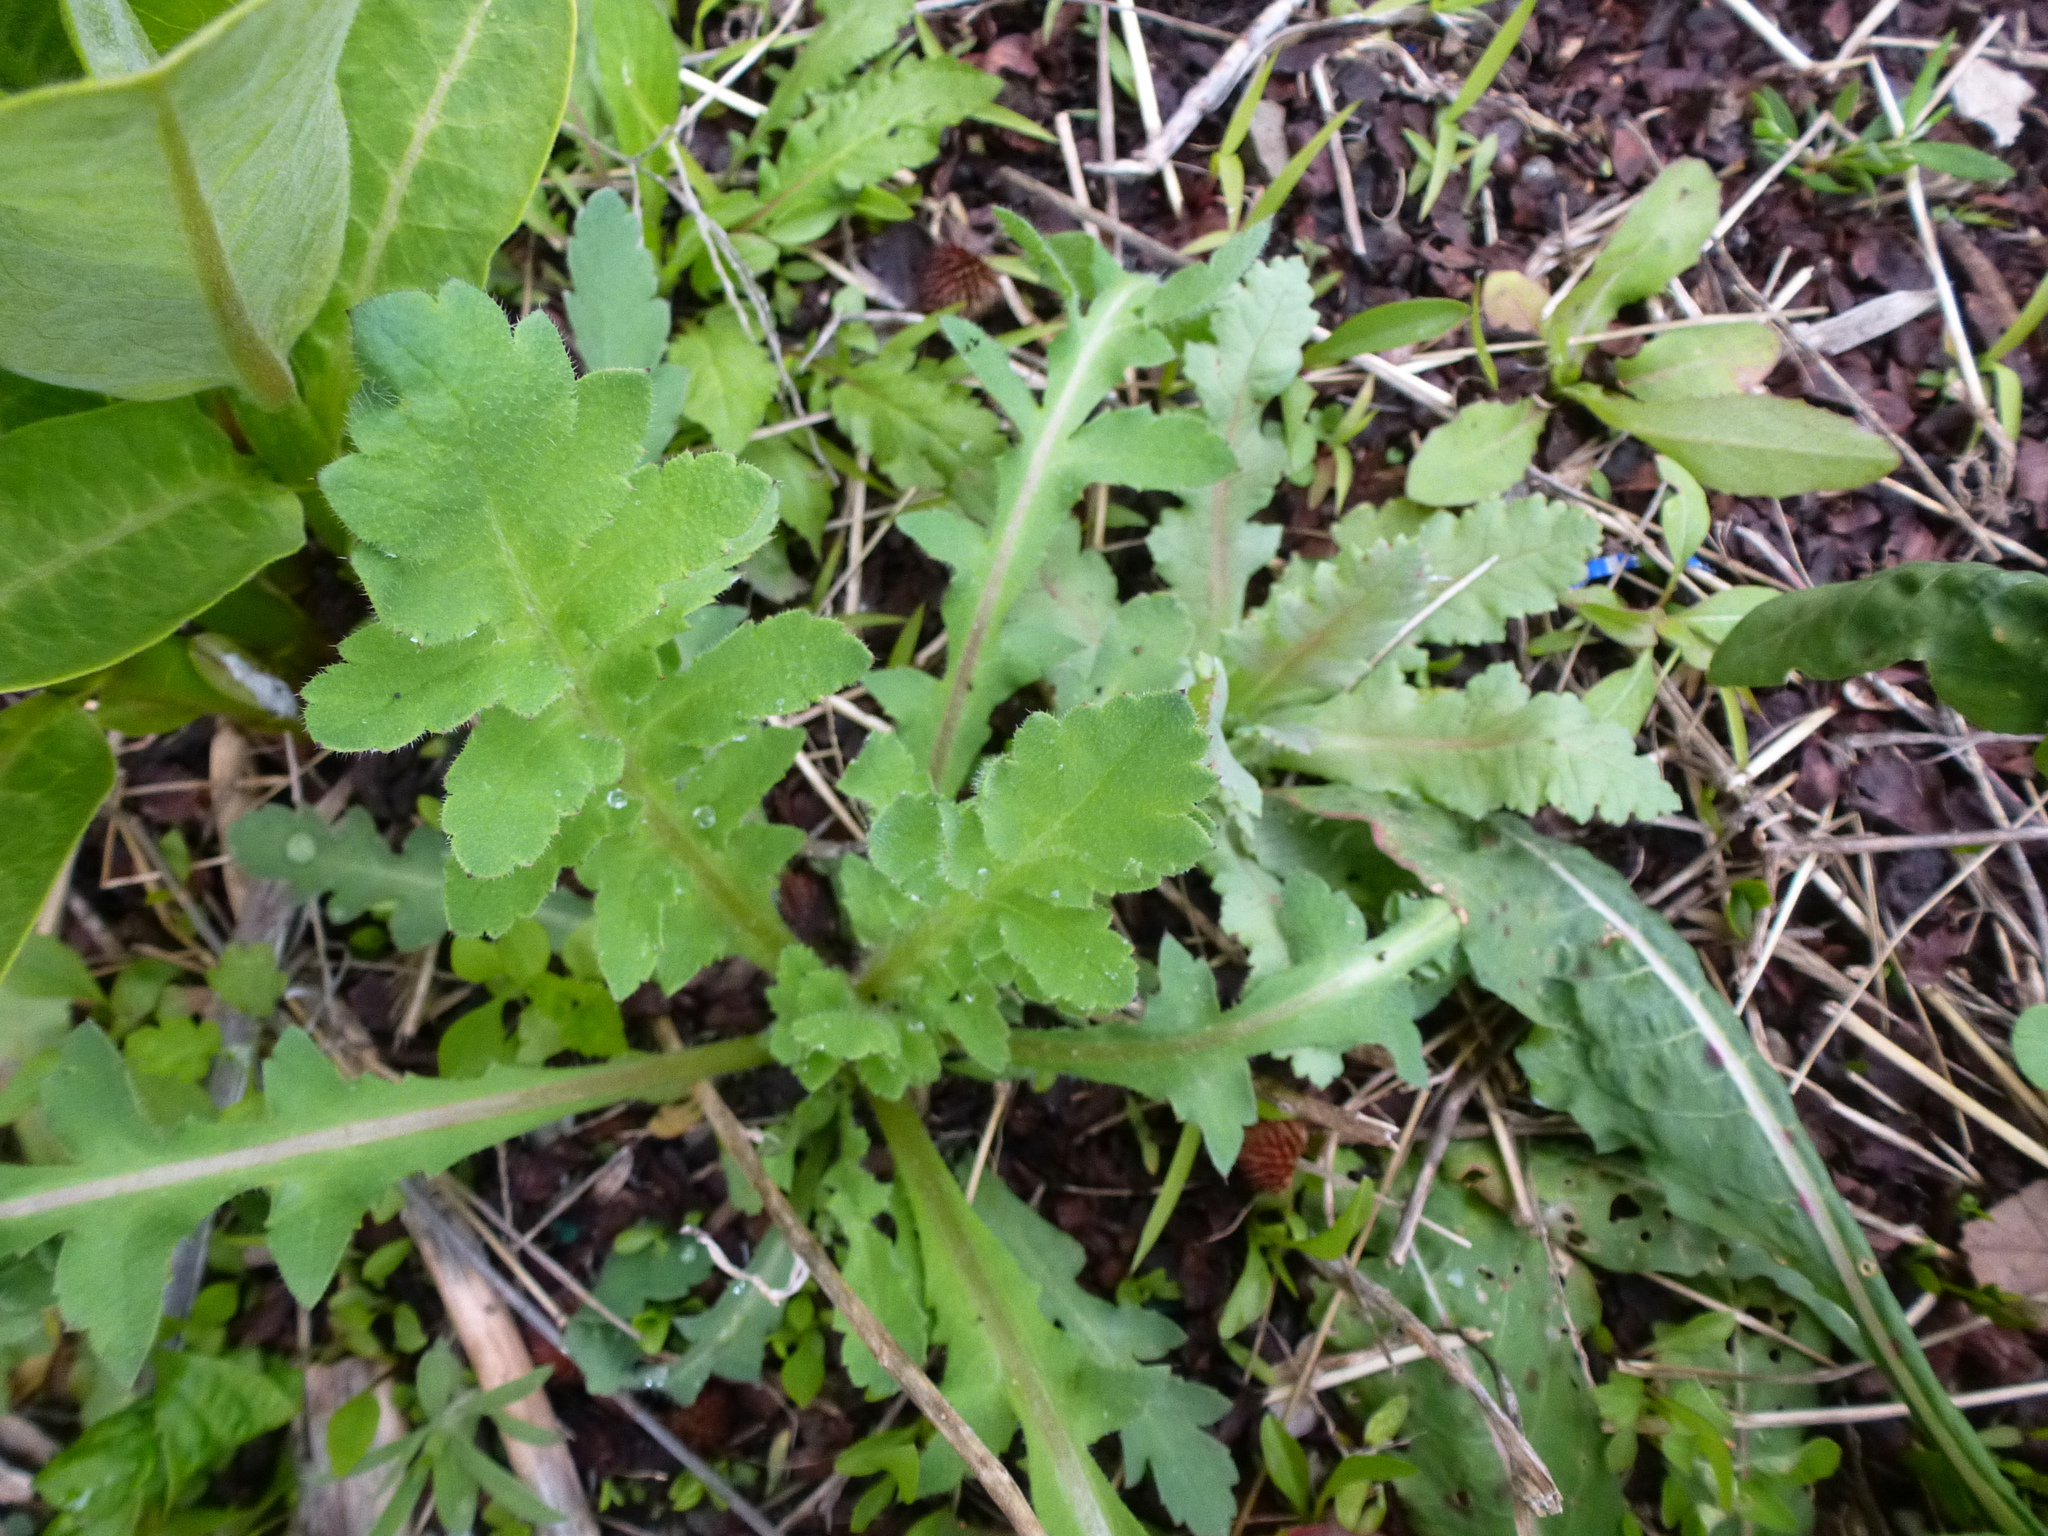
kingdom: Plantae
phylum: Tracheophyta
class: Magnoliopsida
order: Apiales
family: Apiaceae
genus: Pastinaca
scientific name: Pastinaca sativa
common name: Wild parsnip
